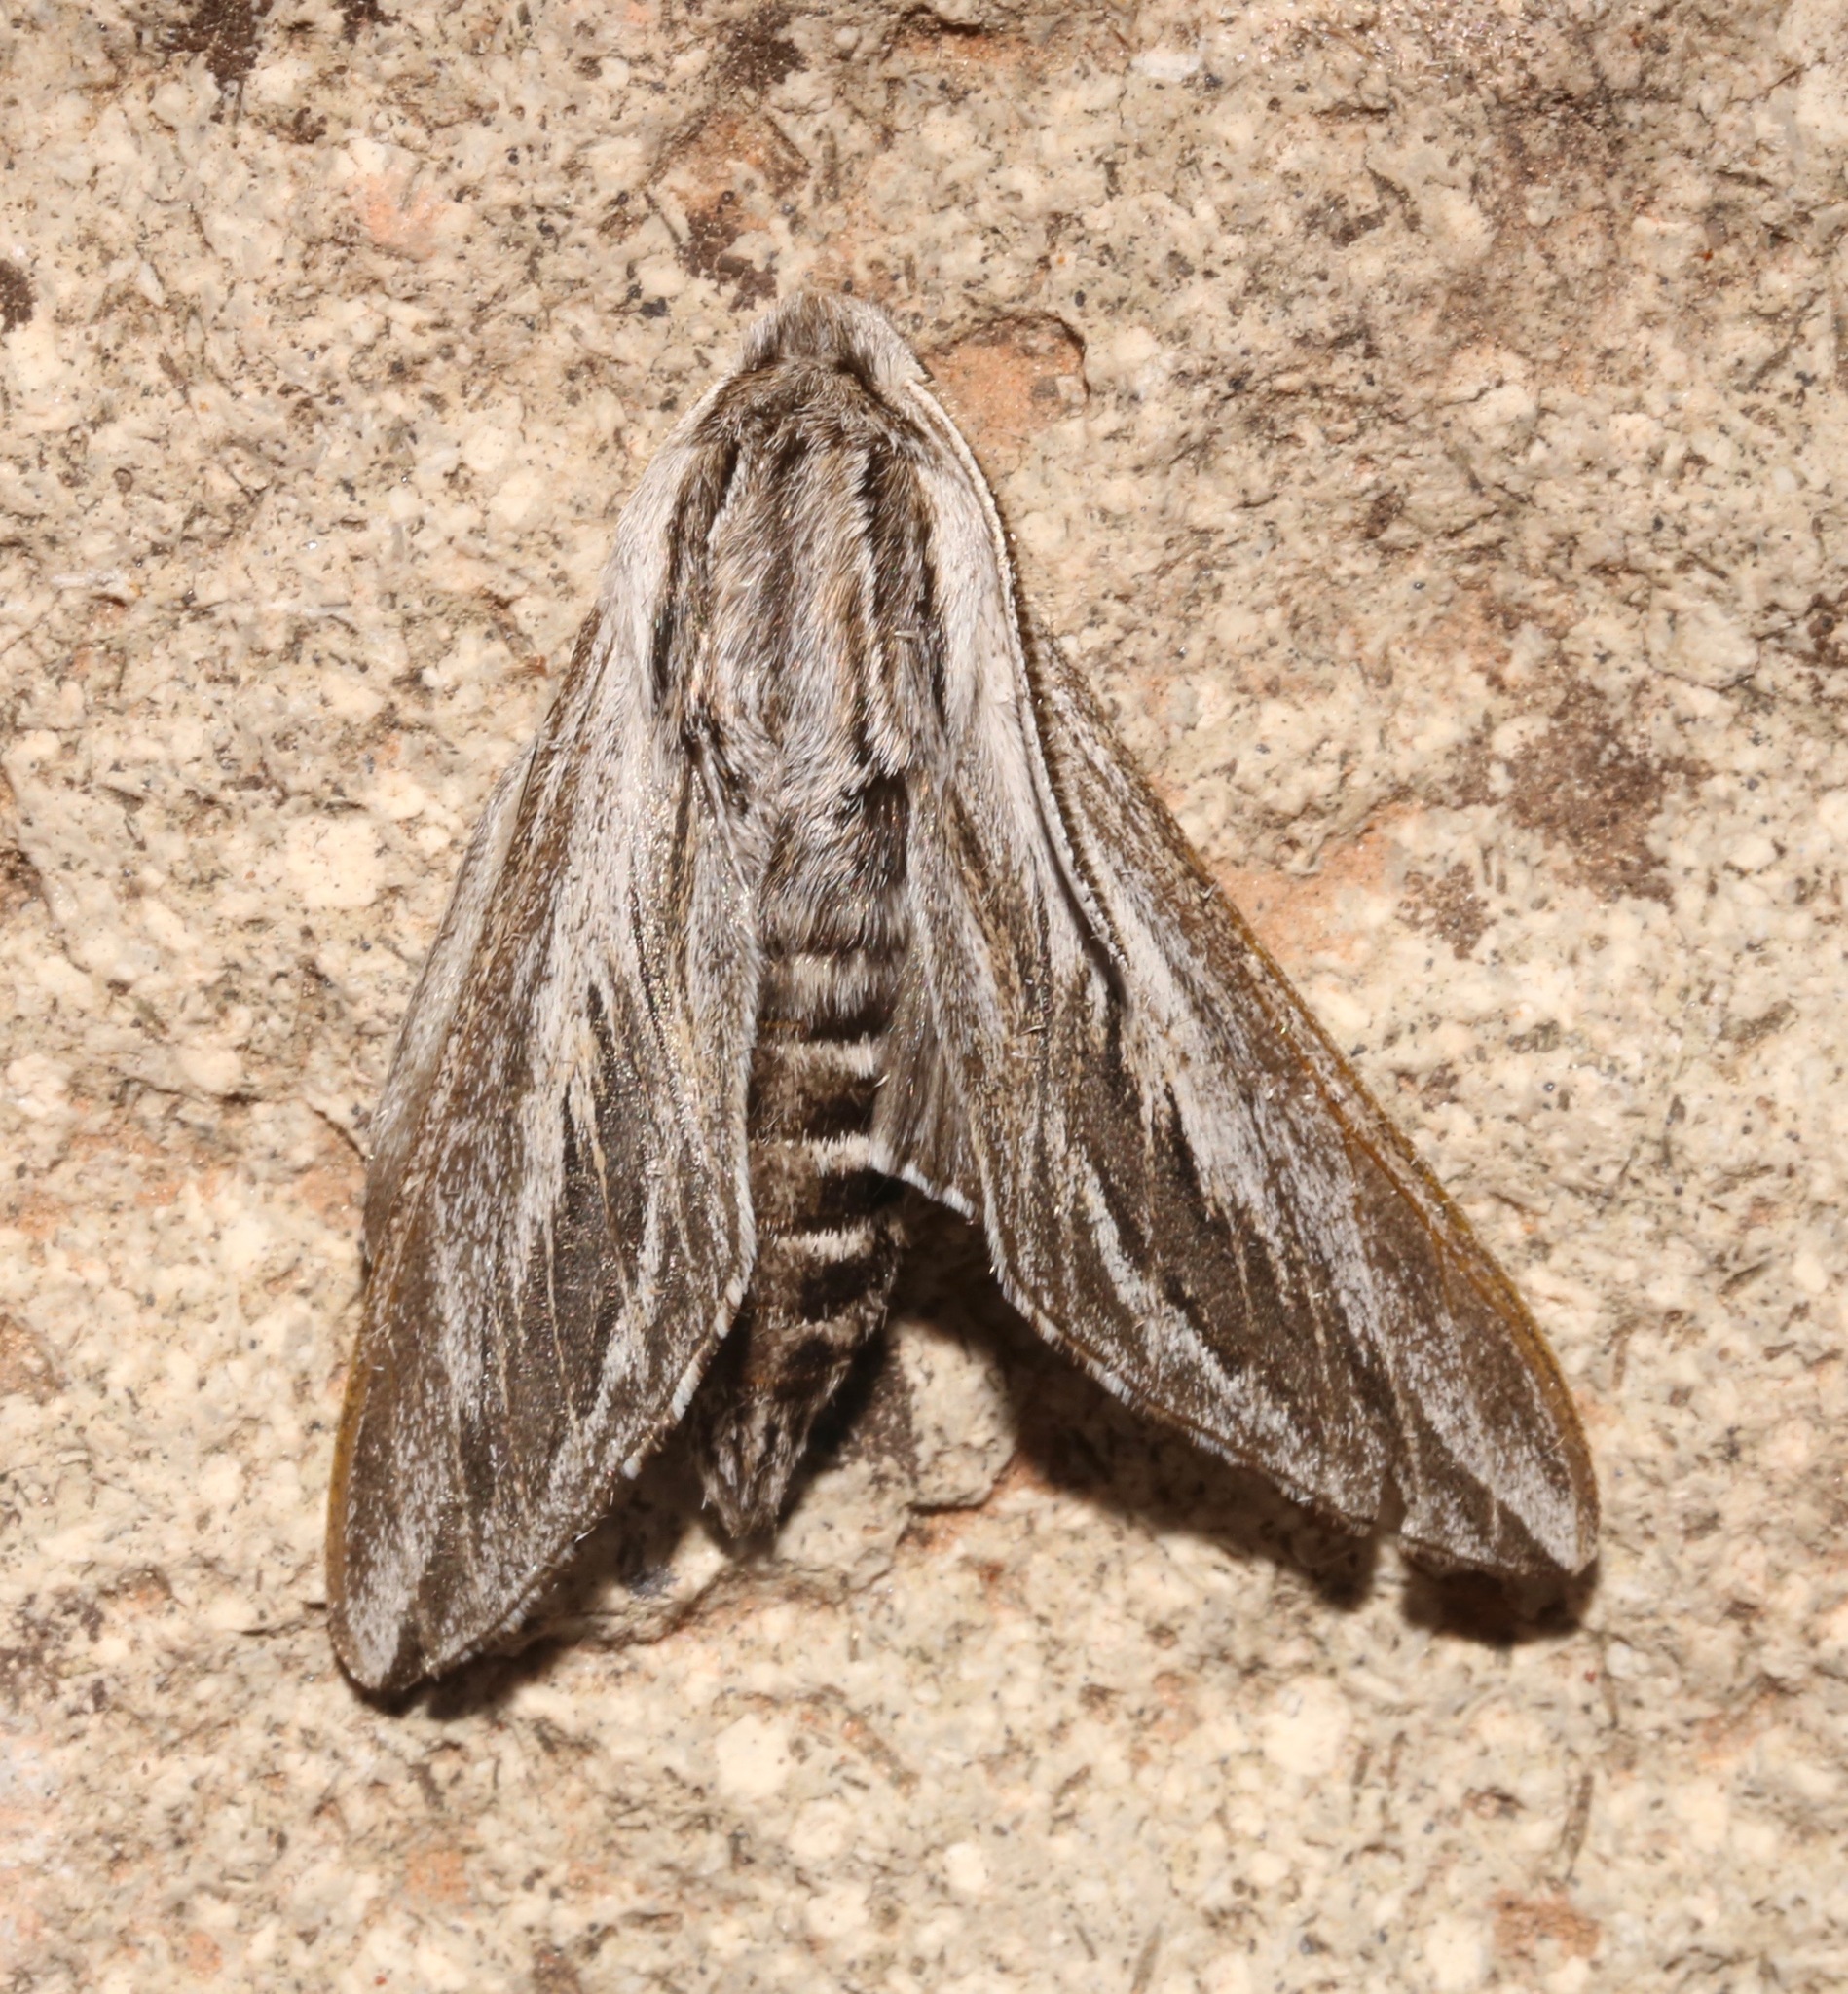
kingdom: Animalia
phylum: Arthropoda
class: Insecta
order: Lepidoptera
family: Sphingidae
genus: Sphinx
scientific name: Sphinx dollii
